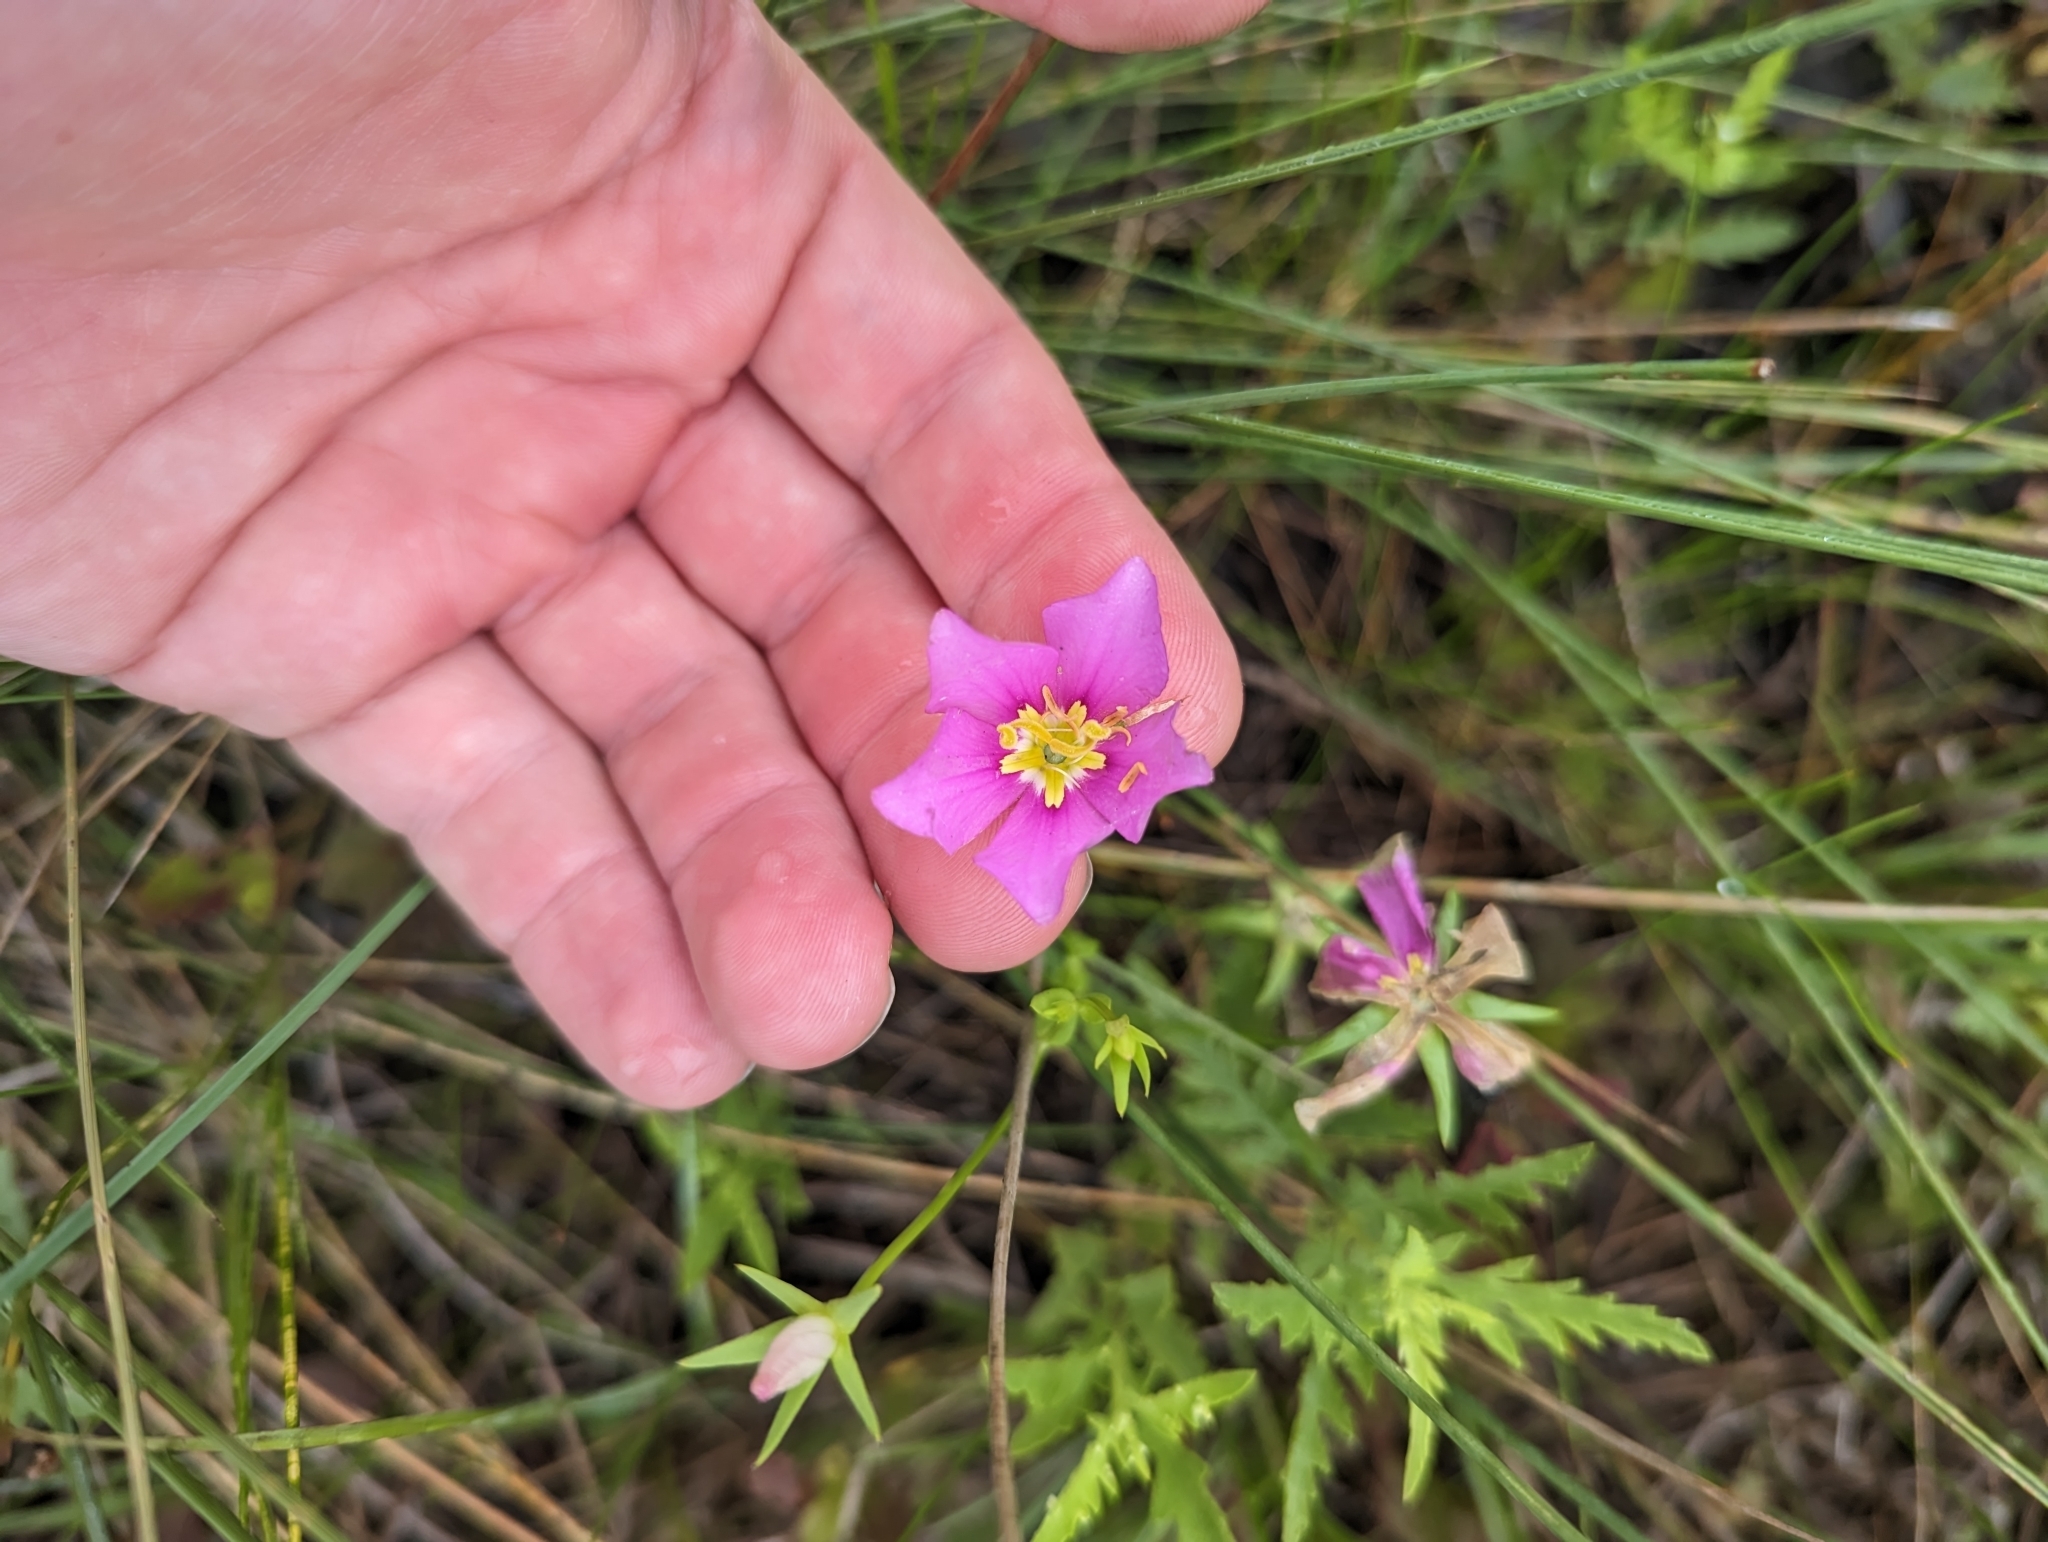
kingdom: Plantae
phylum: Tracheophyta
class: Magnoliopsida
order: Gentianales
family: Gentianaceae
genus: Sabatia
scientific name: Sabatia campestris
